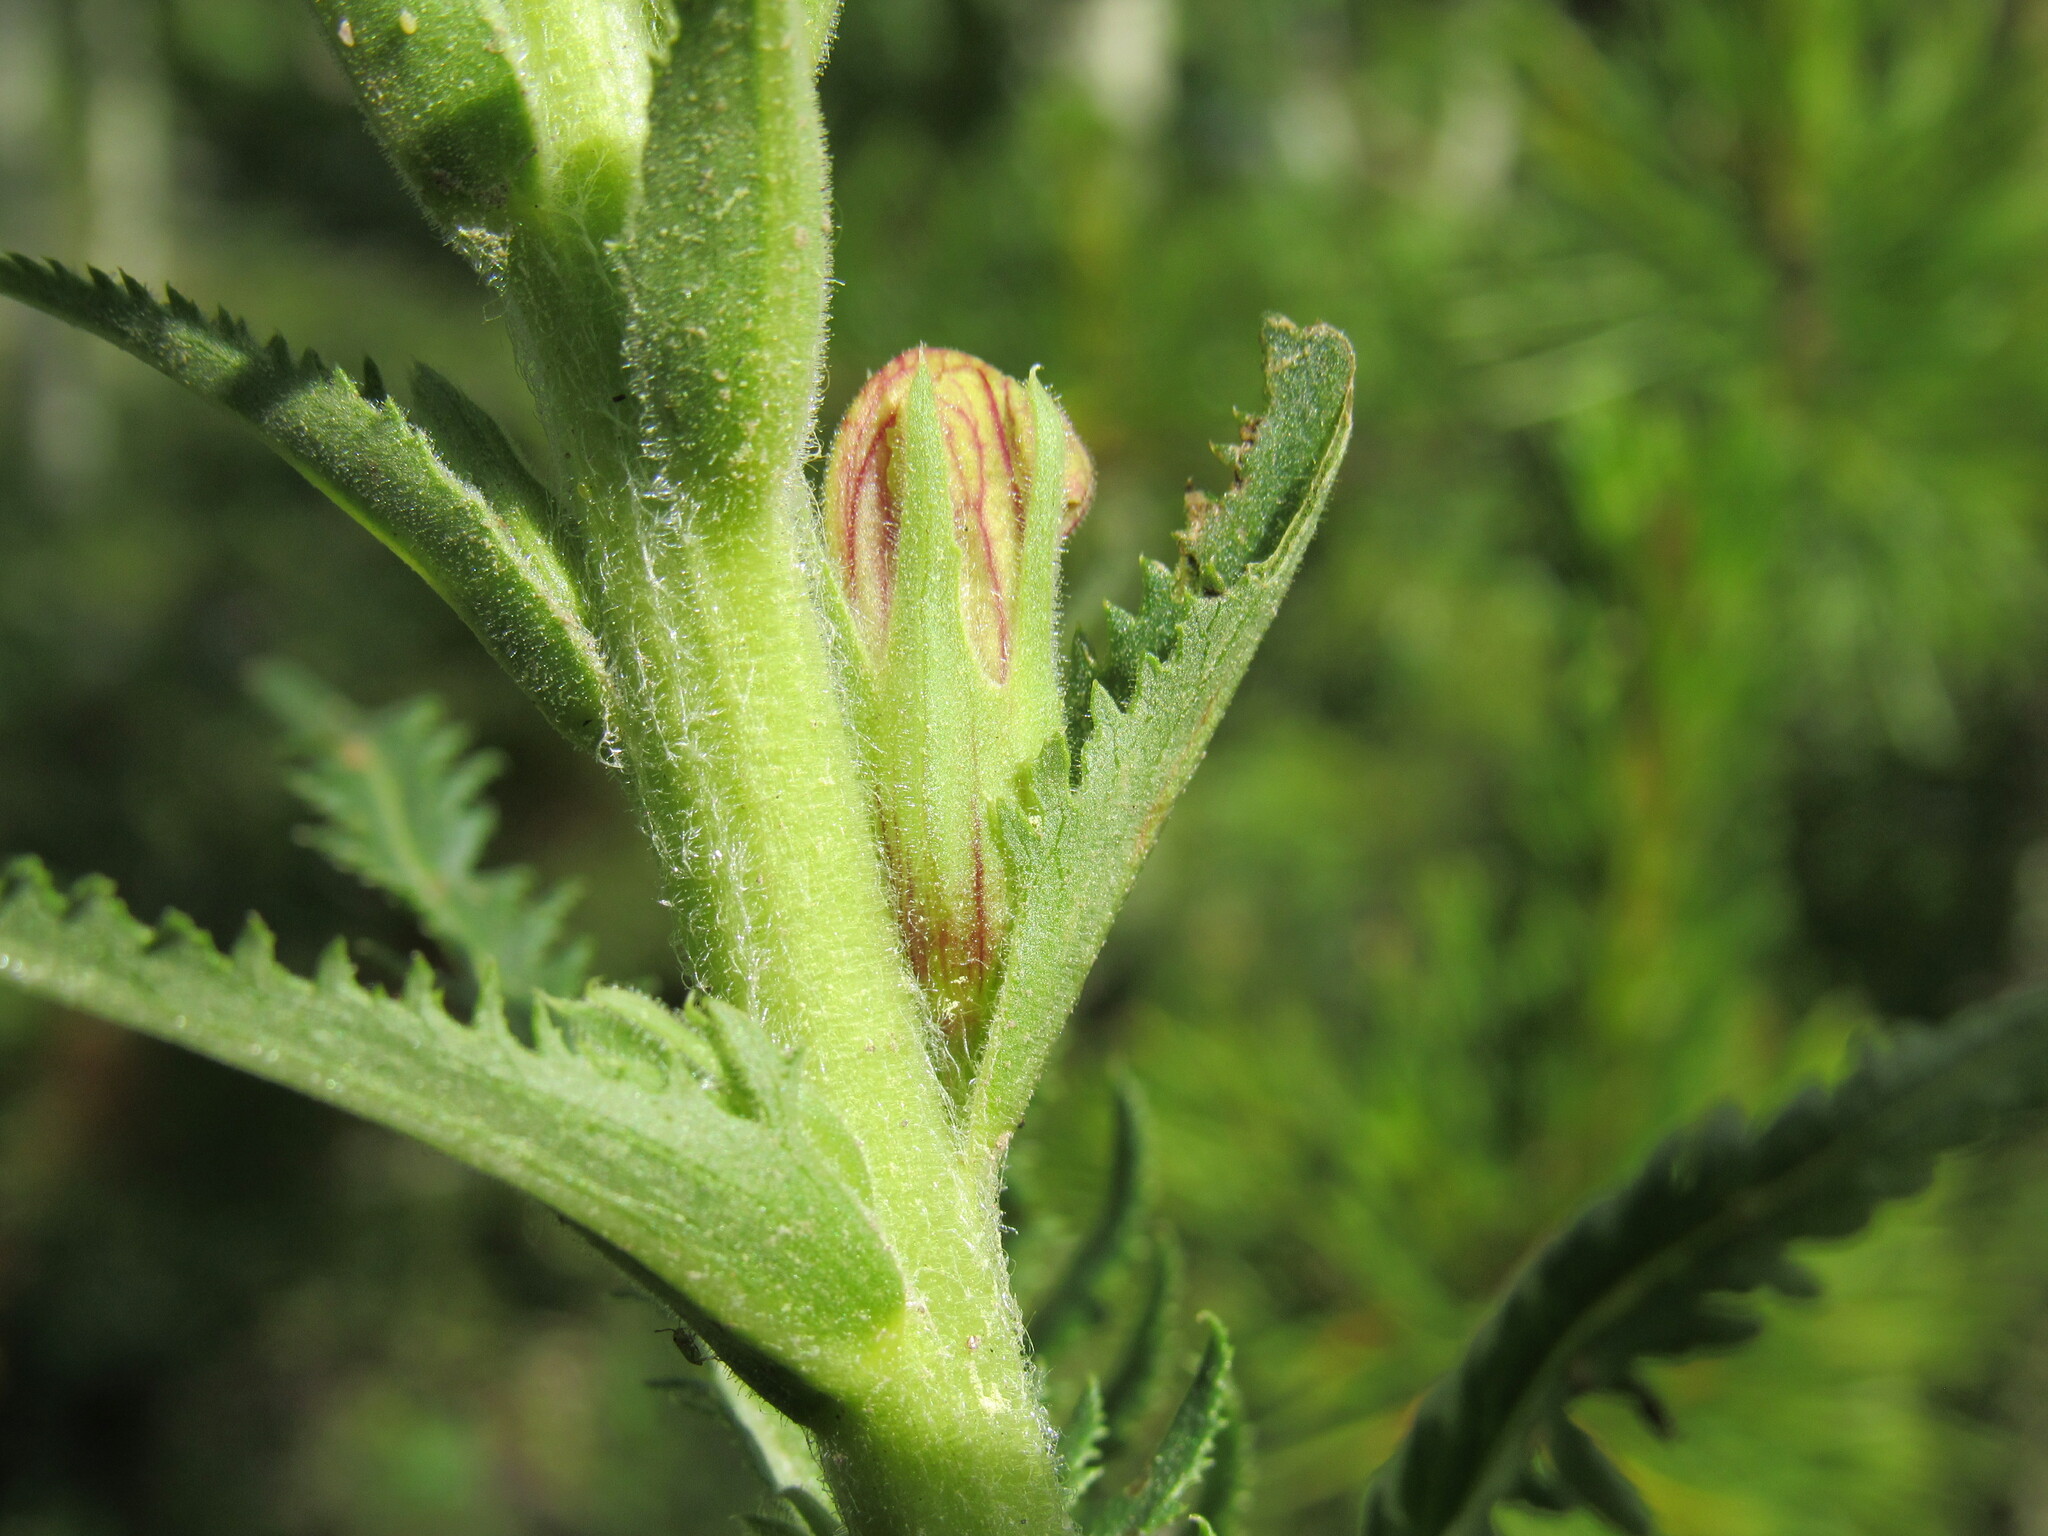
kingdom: Plantae
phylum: Tracheophyta
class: Magnoliopsida
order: Lamiales
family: Orobanchaceae
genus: Pedicularis
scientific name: Pedicularis procera
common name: Gray's lousewort
